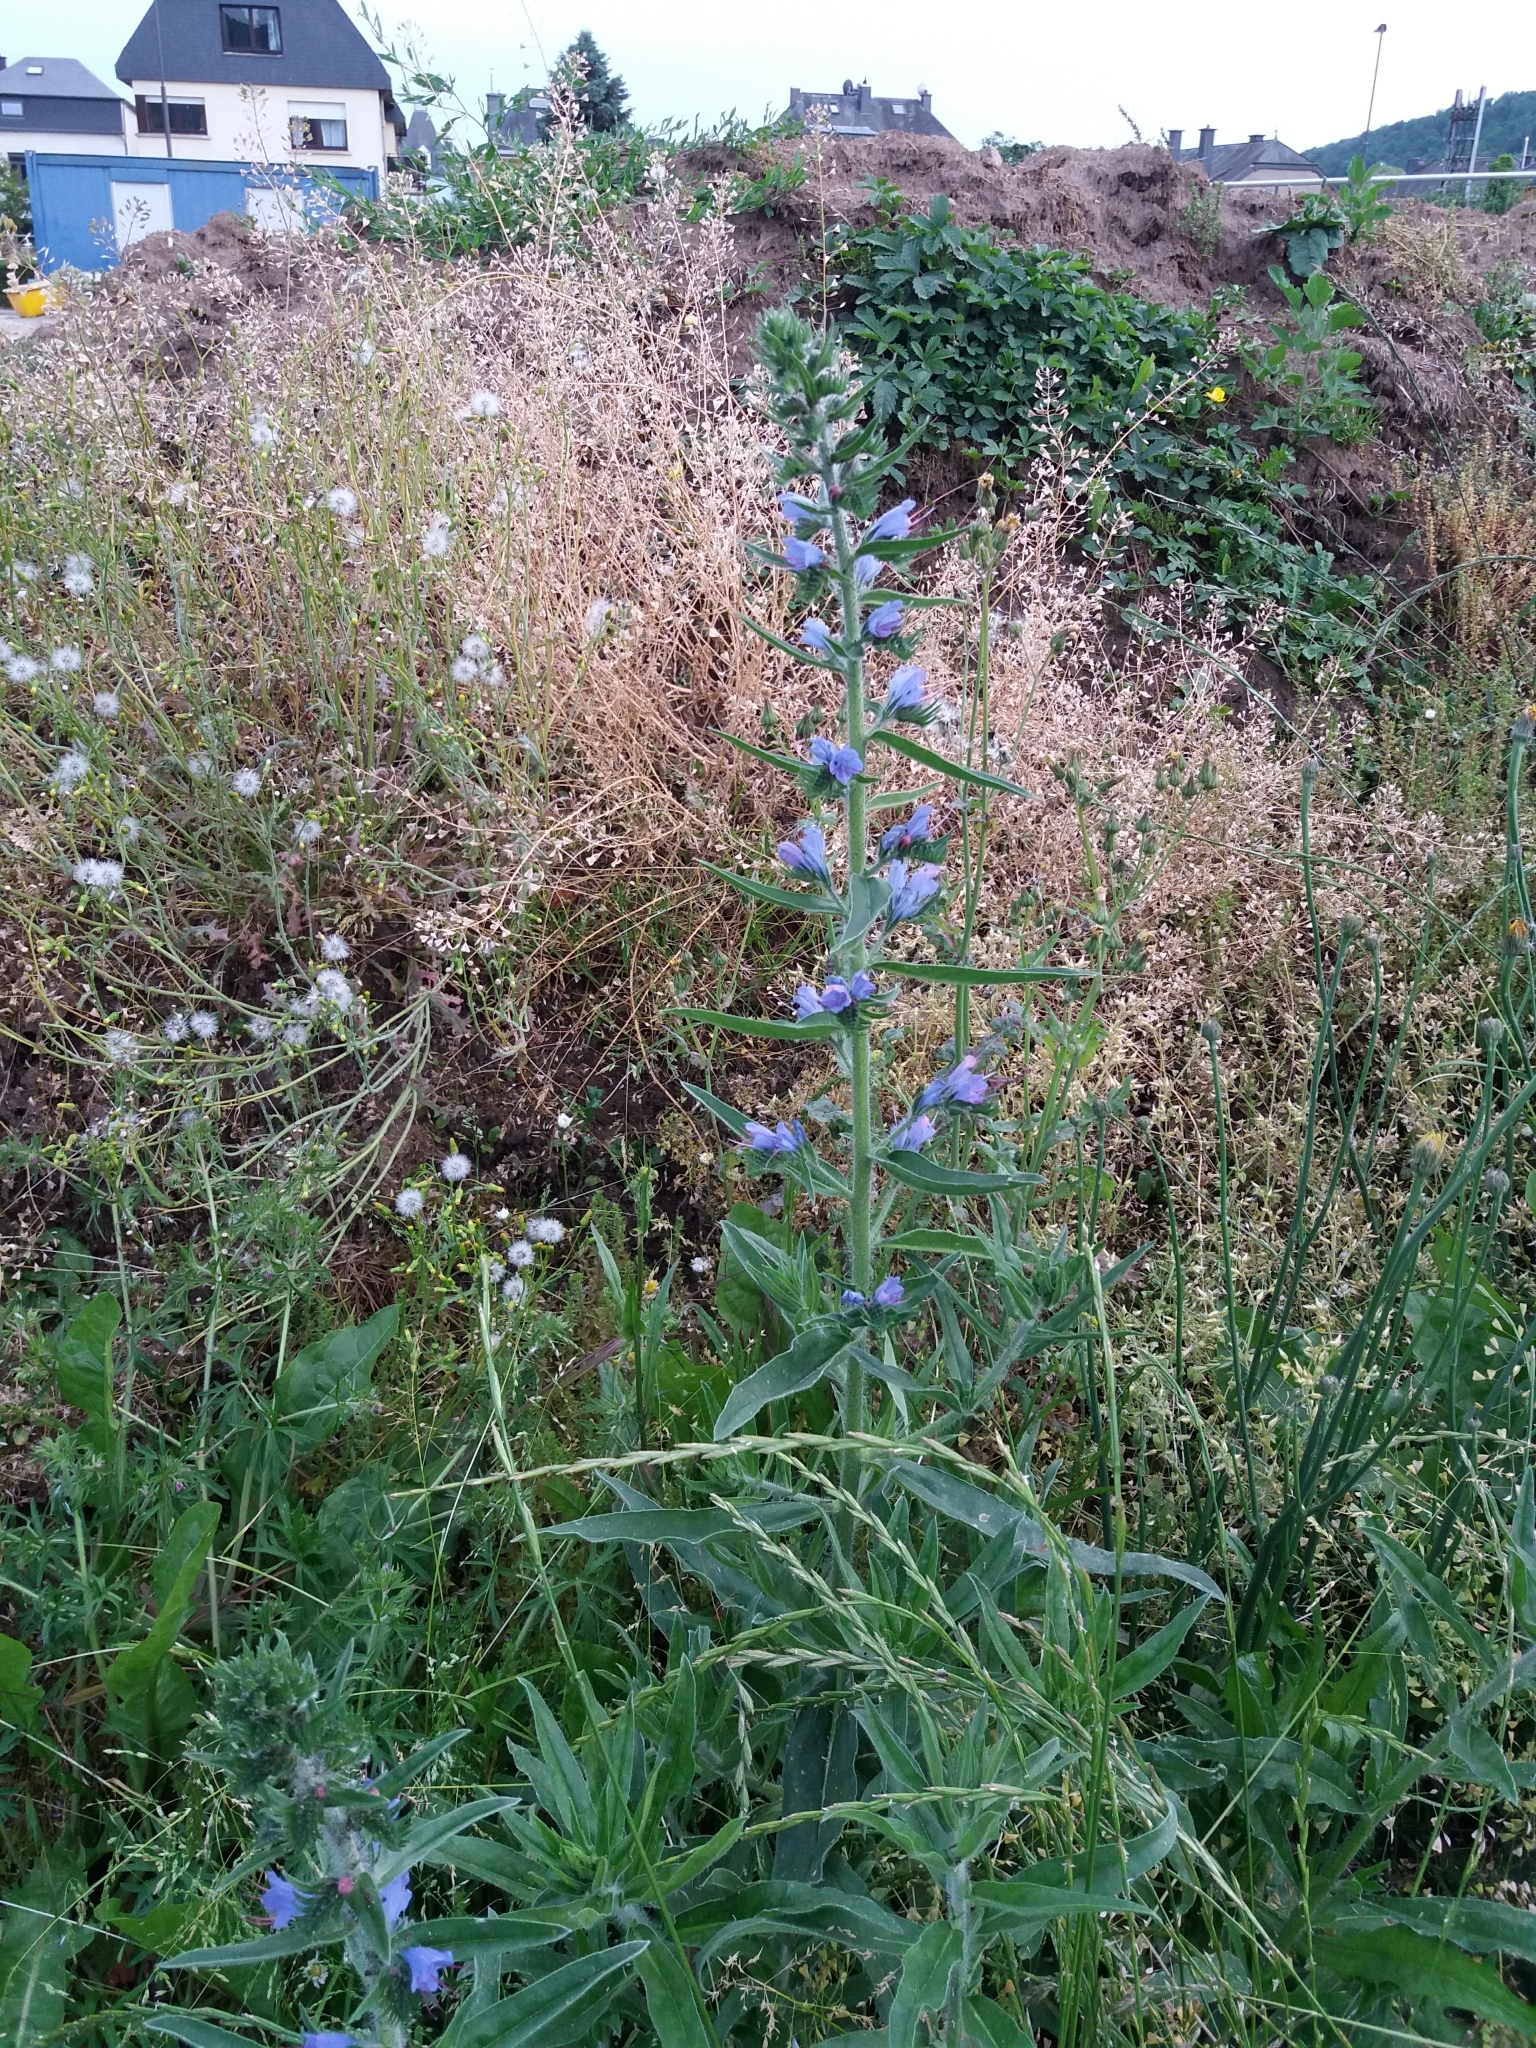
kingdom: Plantae
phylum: Tracheophyta
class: Magnoliopsida
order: Boraginales
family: Boraginaceae
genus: Echium
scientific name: Echium vulgare
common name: Common viper's bugloss
